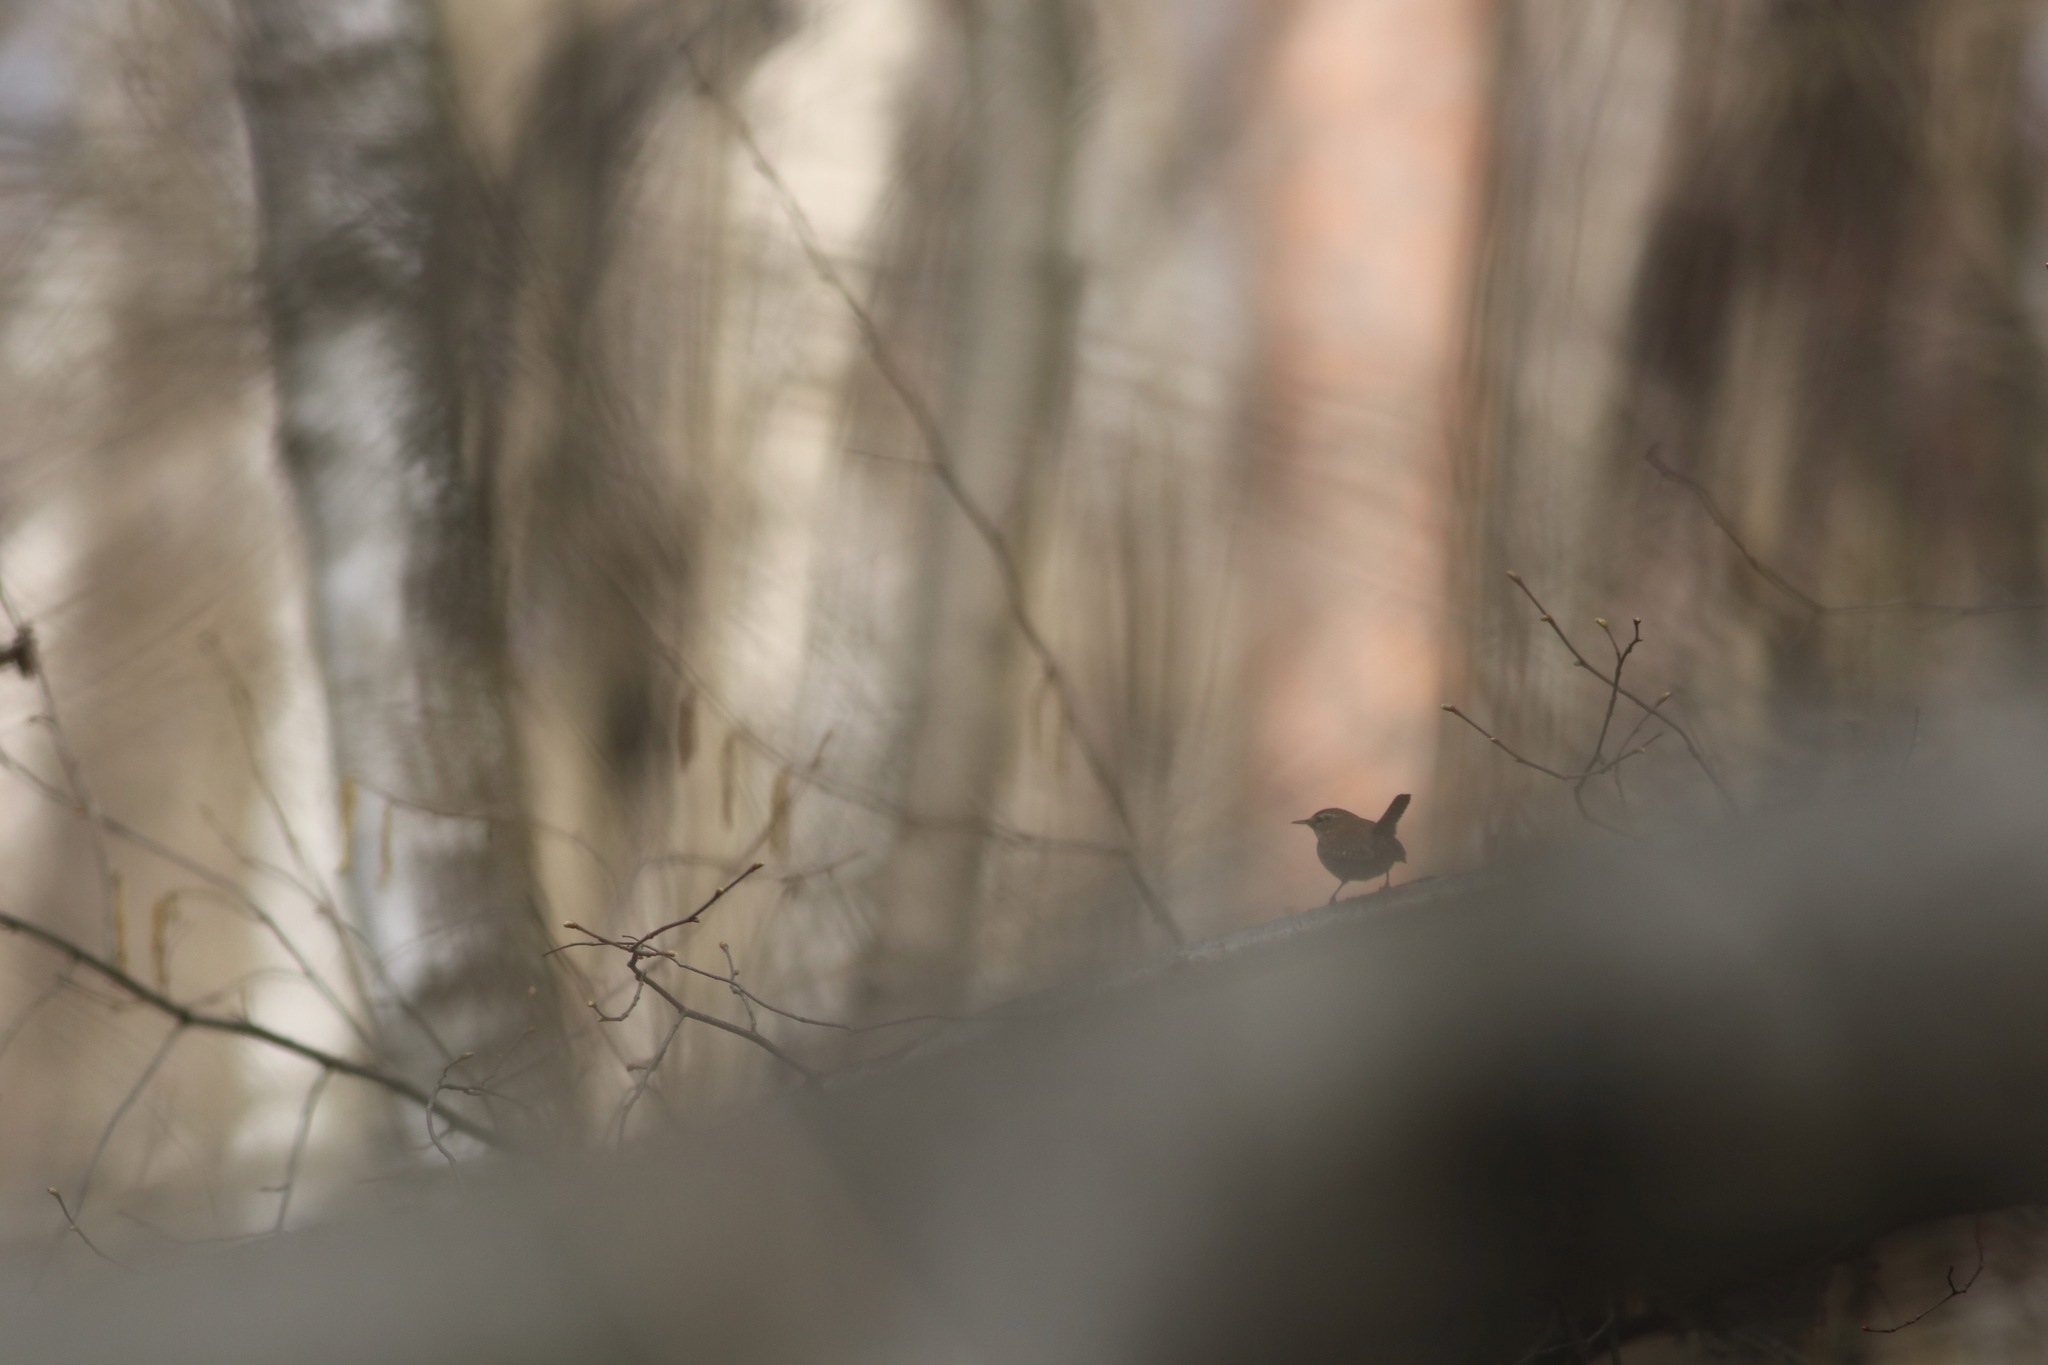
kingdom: Animalia
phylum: Chordata
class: Aves
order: Passeriformes
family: Troglodytidae
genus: Troglodytes
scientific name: Troglodytes troglodytes
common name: Eurasian wren
